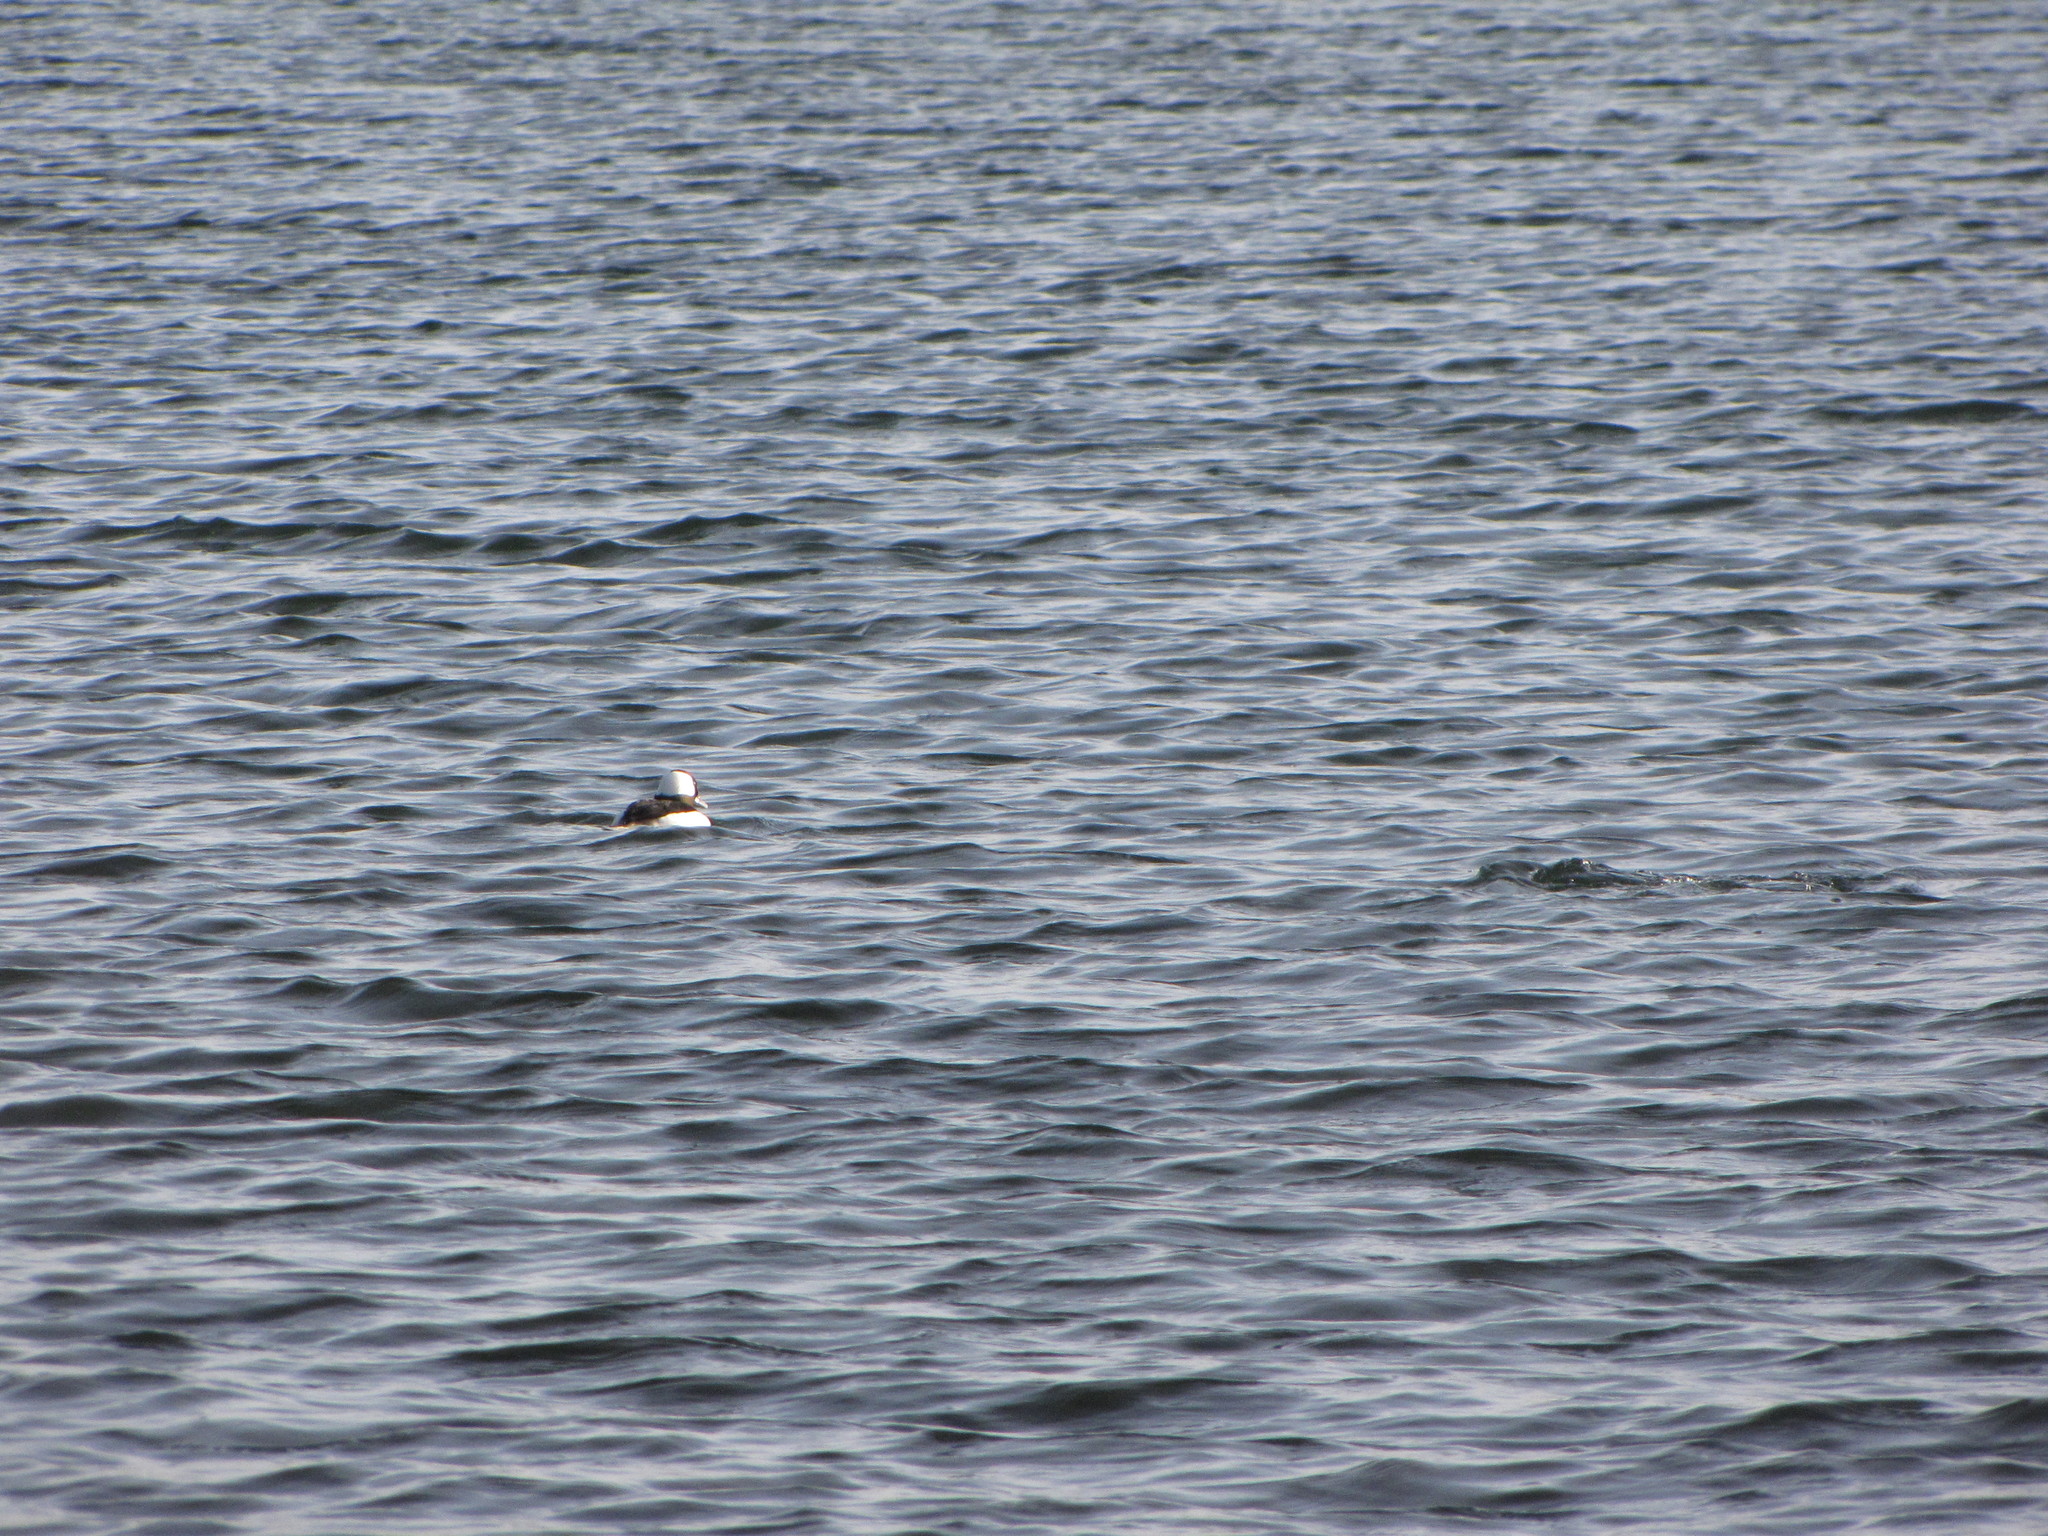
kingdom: Animalia
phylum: Chordata
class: Aves
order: Anseriformes
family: Anatidae
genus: Bucephala
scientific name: Bucephala albeola
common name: Bufflehead
